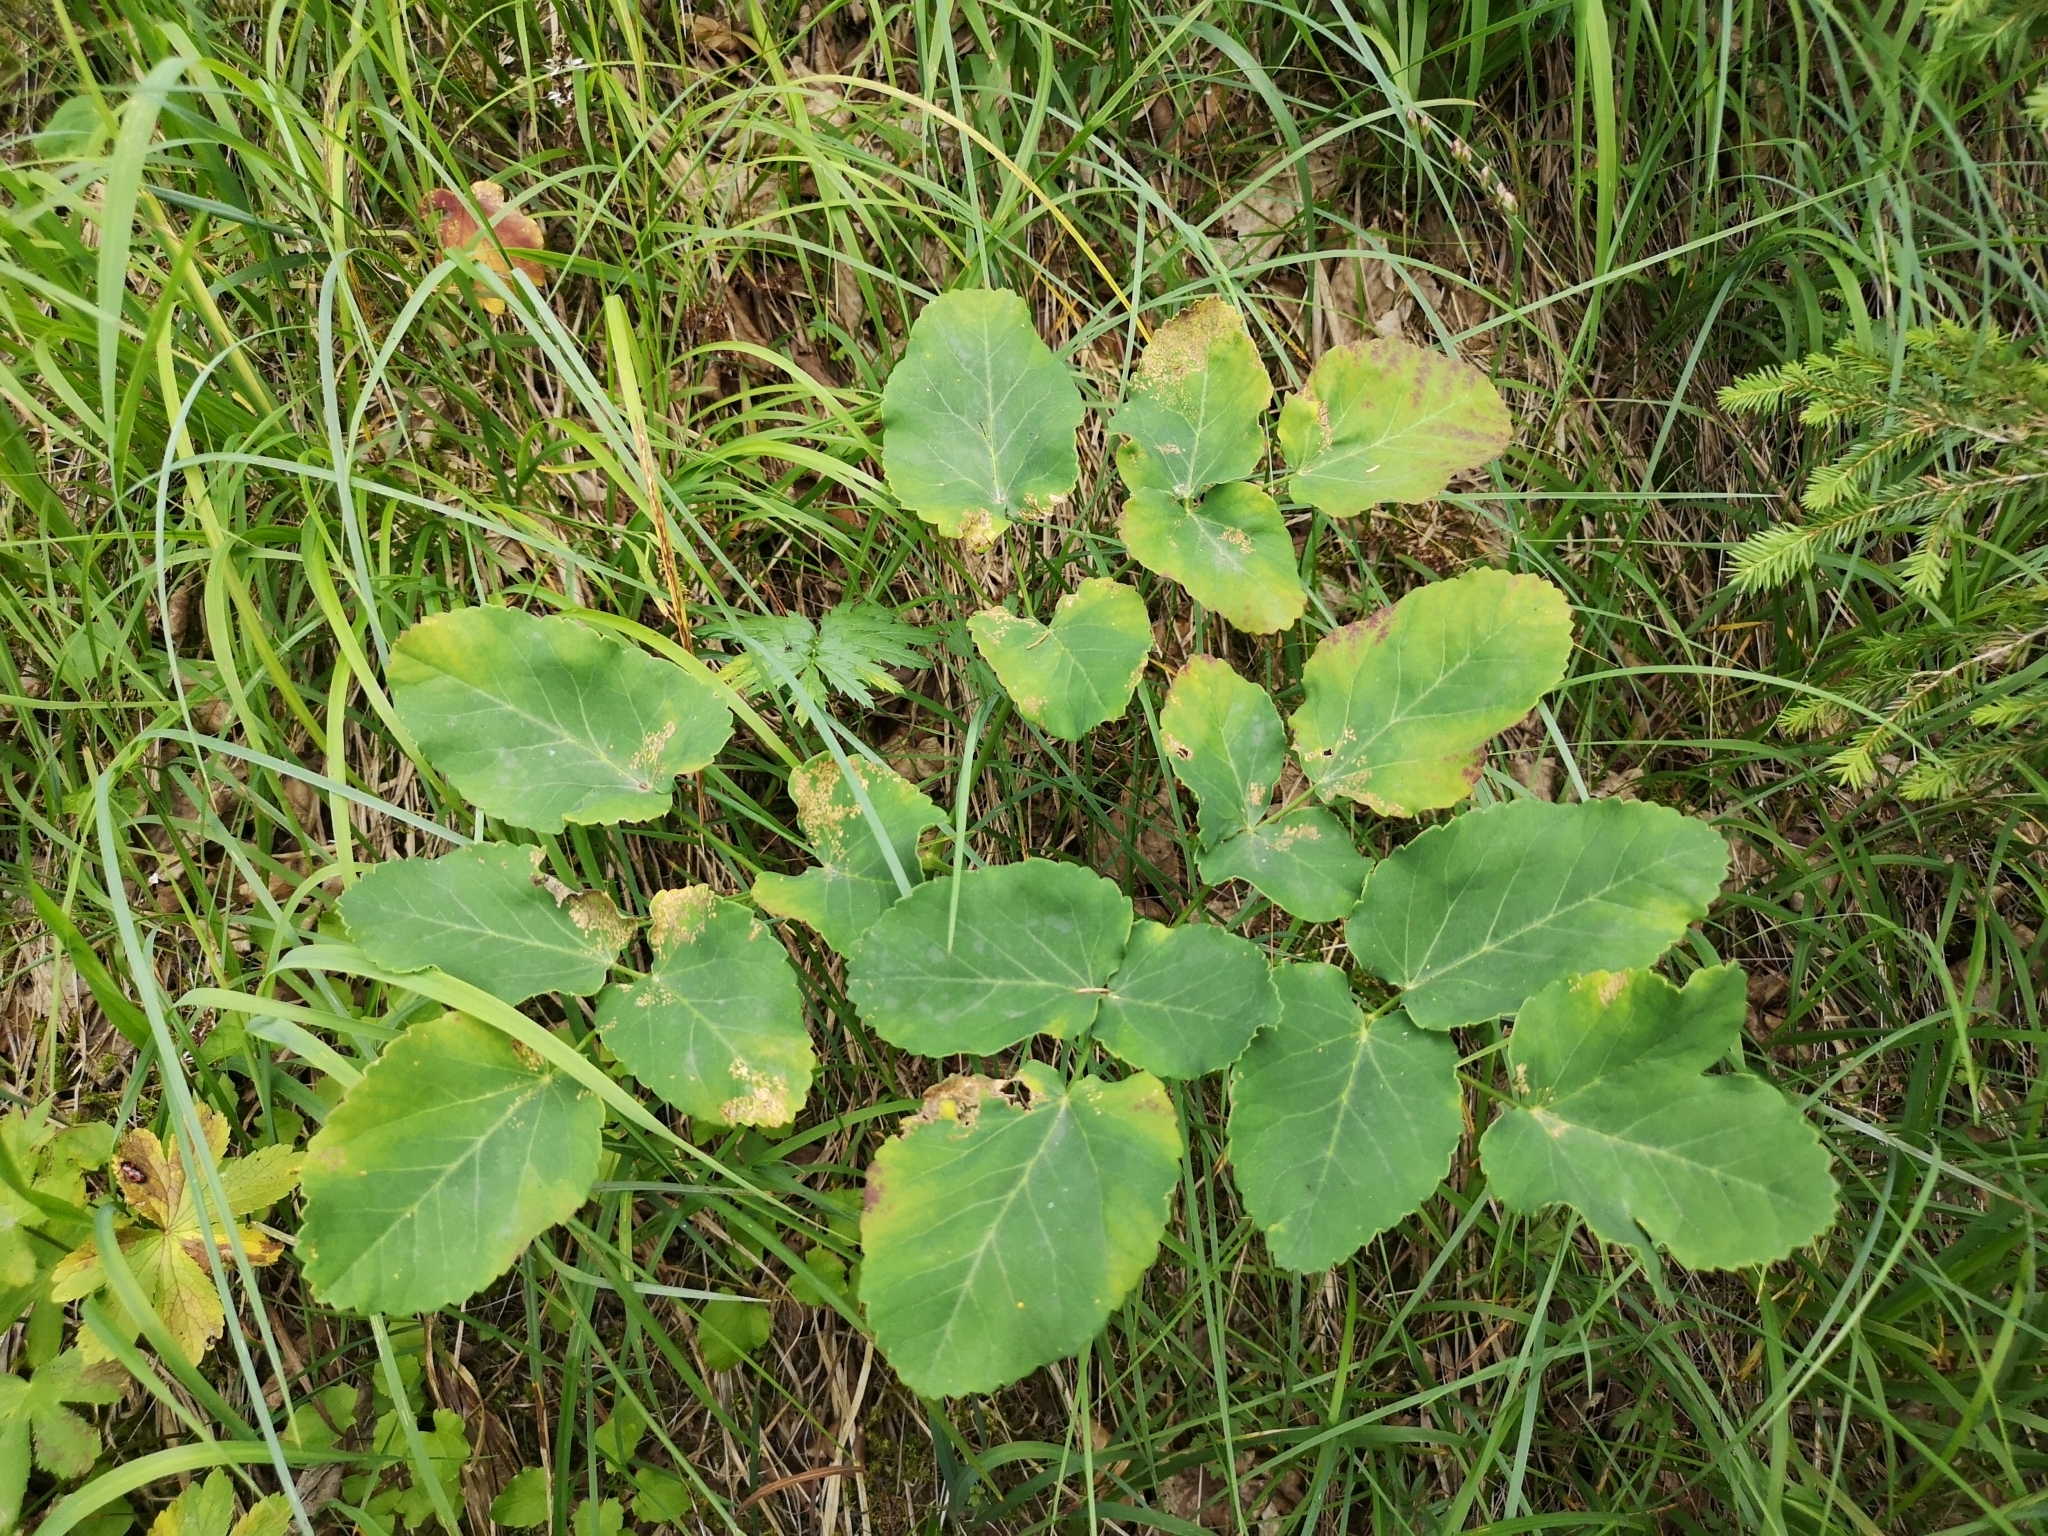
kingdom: Plantae
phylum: Tracheophyta
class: Magnoliopsida
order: Apiales
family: Apiaceae
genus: Laserpitium
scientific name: Laserpitium latifolium
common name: Broadleaf sermountain
